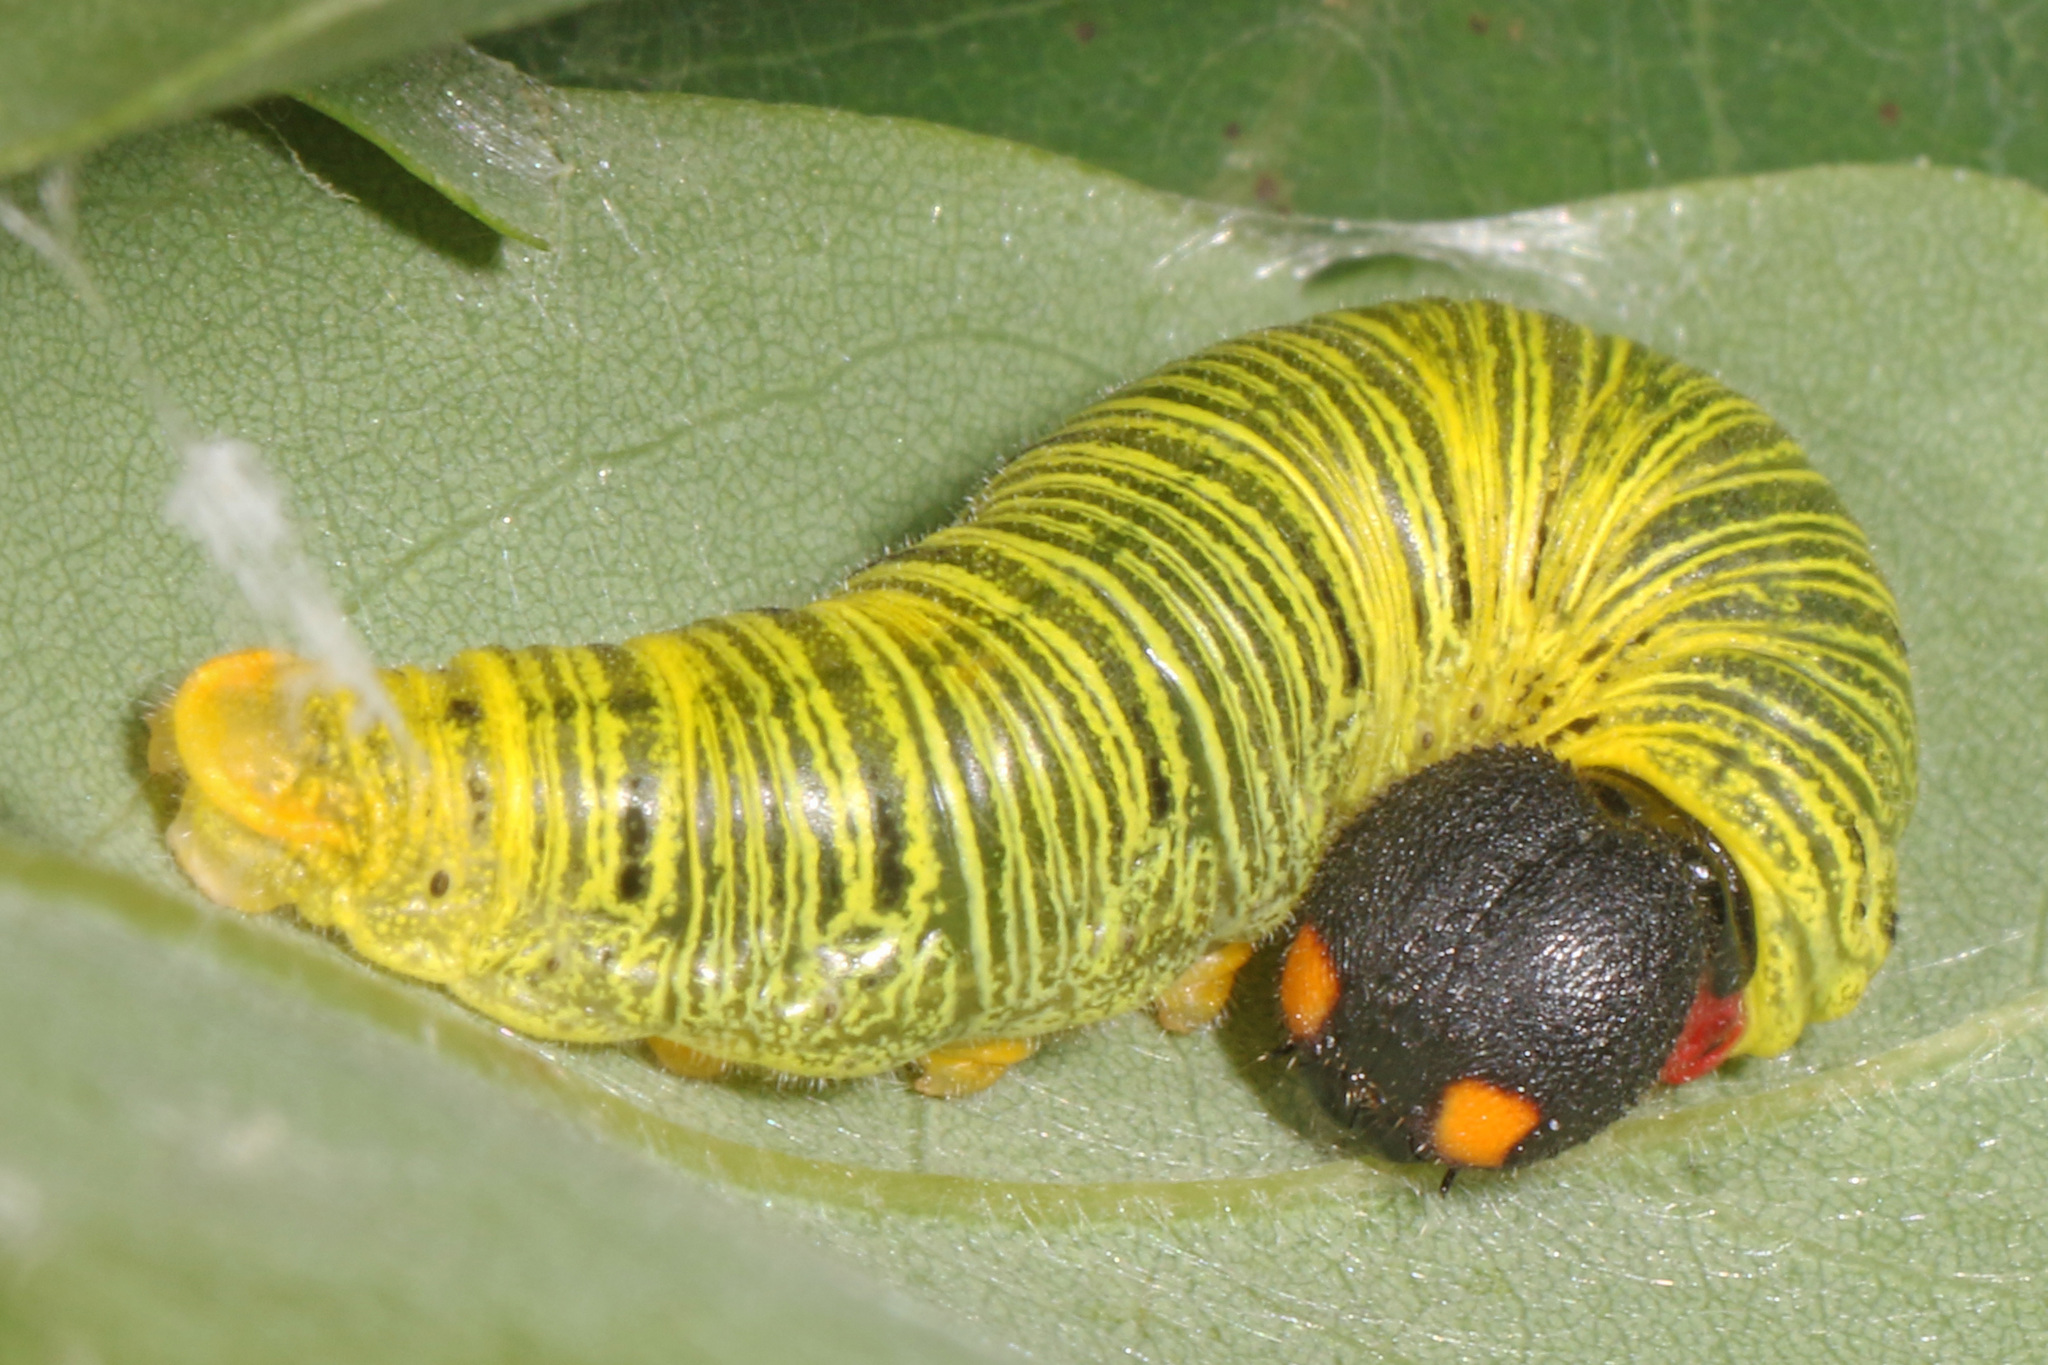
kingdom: Animalia
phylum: Arthropoda
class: Insecta
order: Lepidoptera
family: Hesperiidae
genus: Epargyreus
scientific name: Epargyreus clarus
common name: Silver-spotted skipper
